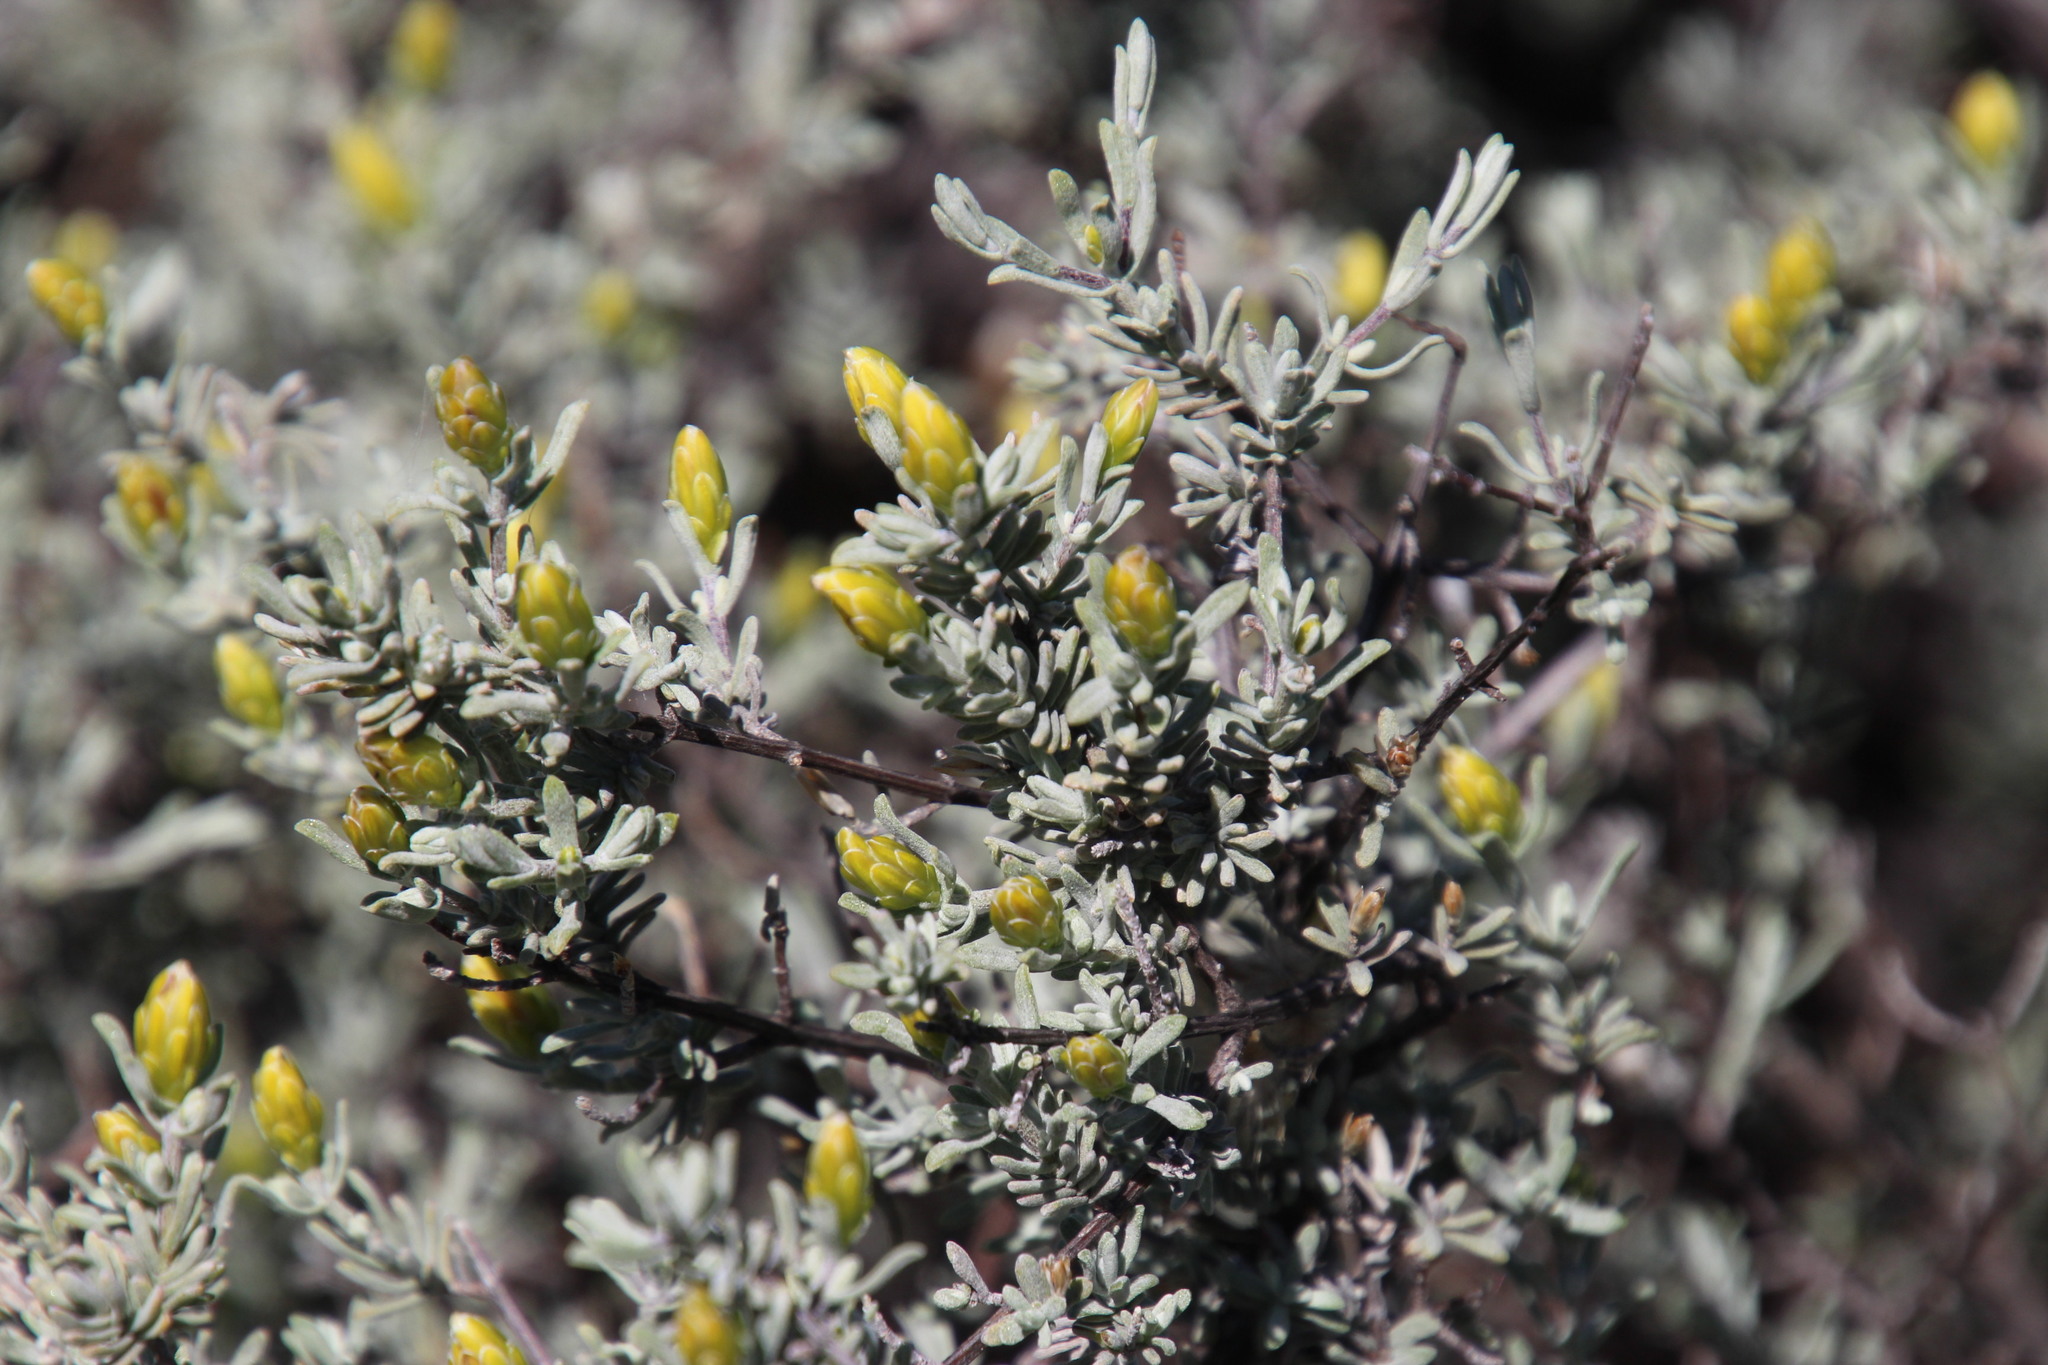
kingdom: Plantae
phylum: Tracheophyta
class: Magnoliopsida
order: Asterales
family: Asteraceae
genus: Pteronia
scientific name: Pteronia incana
